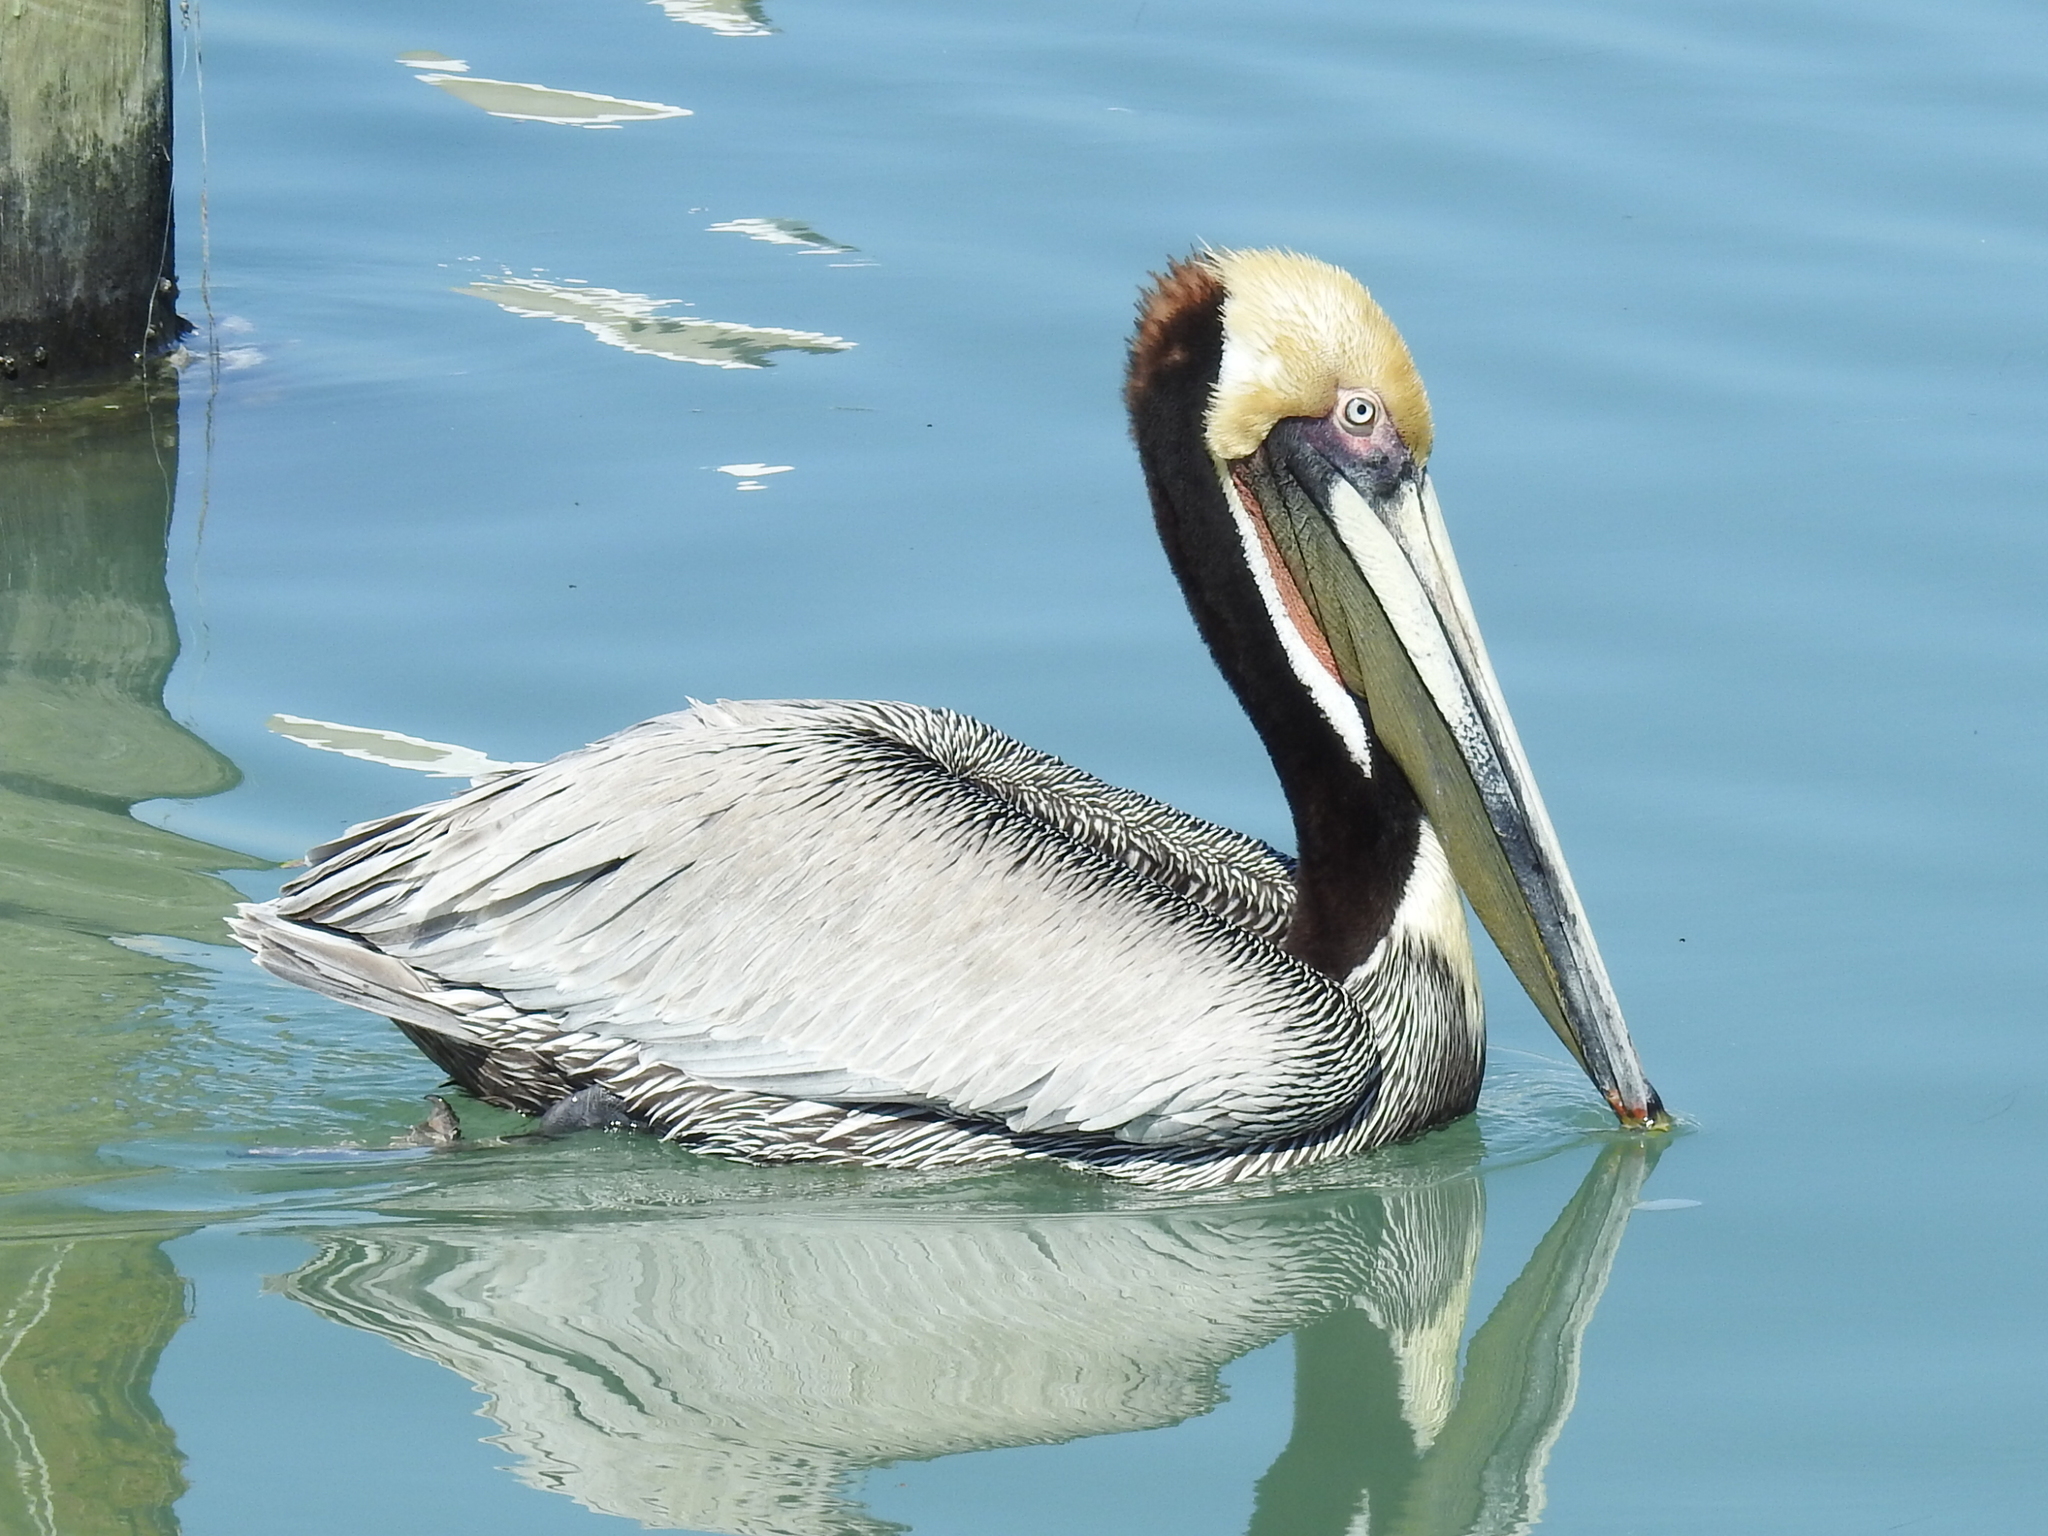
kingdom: Animalia
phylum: Chordata
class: Aves
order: Pelecaniformes
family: Pelecanidae
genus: Pelecanus
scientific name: Pelecanus occidentalis
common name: Brown pelican
